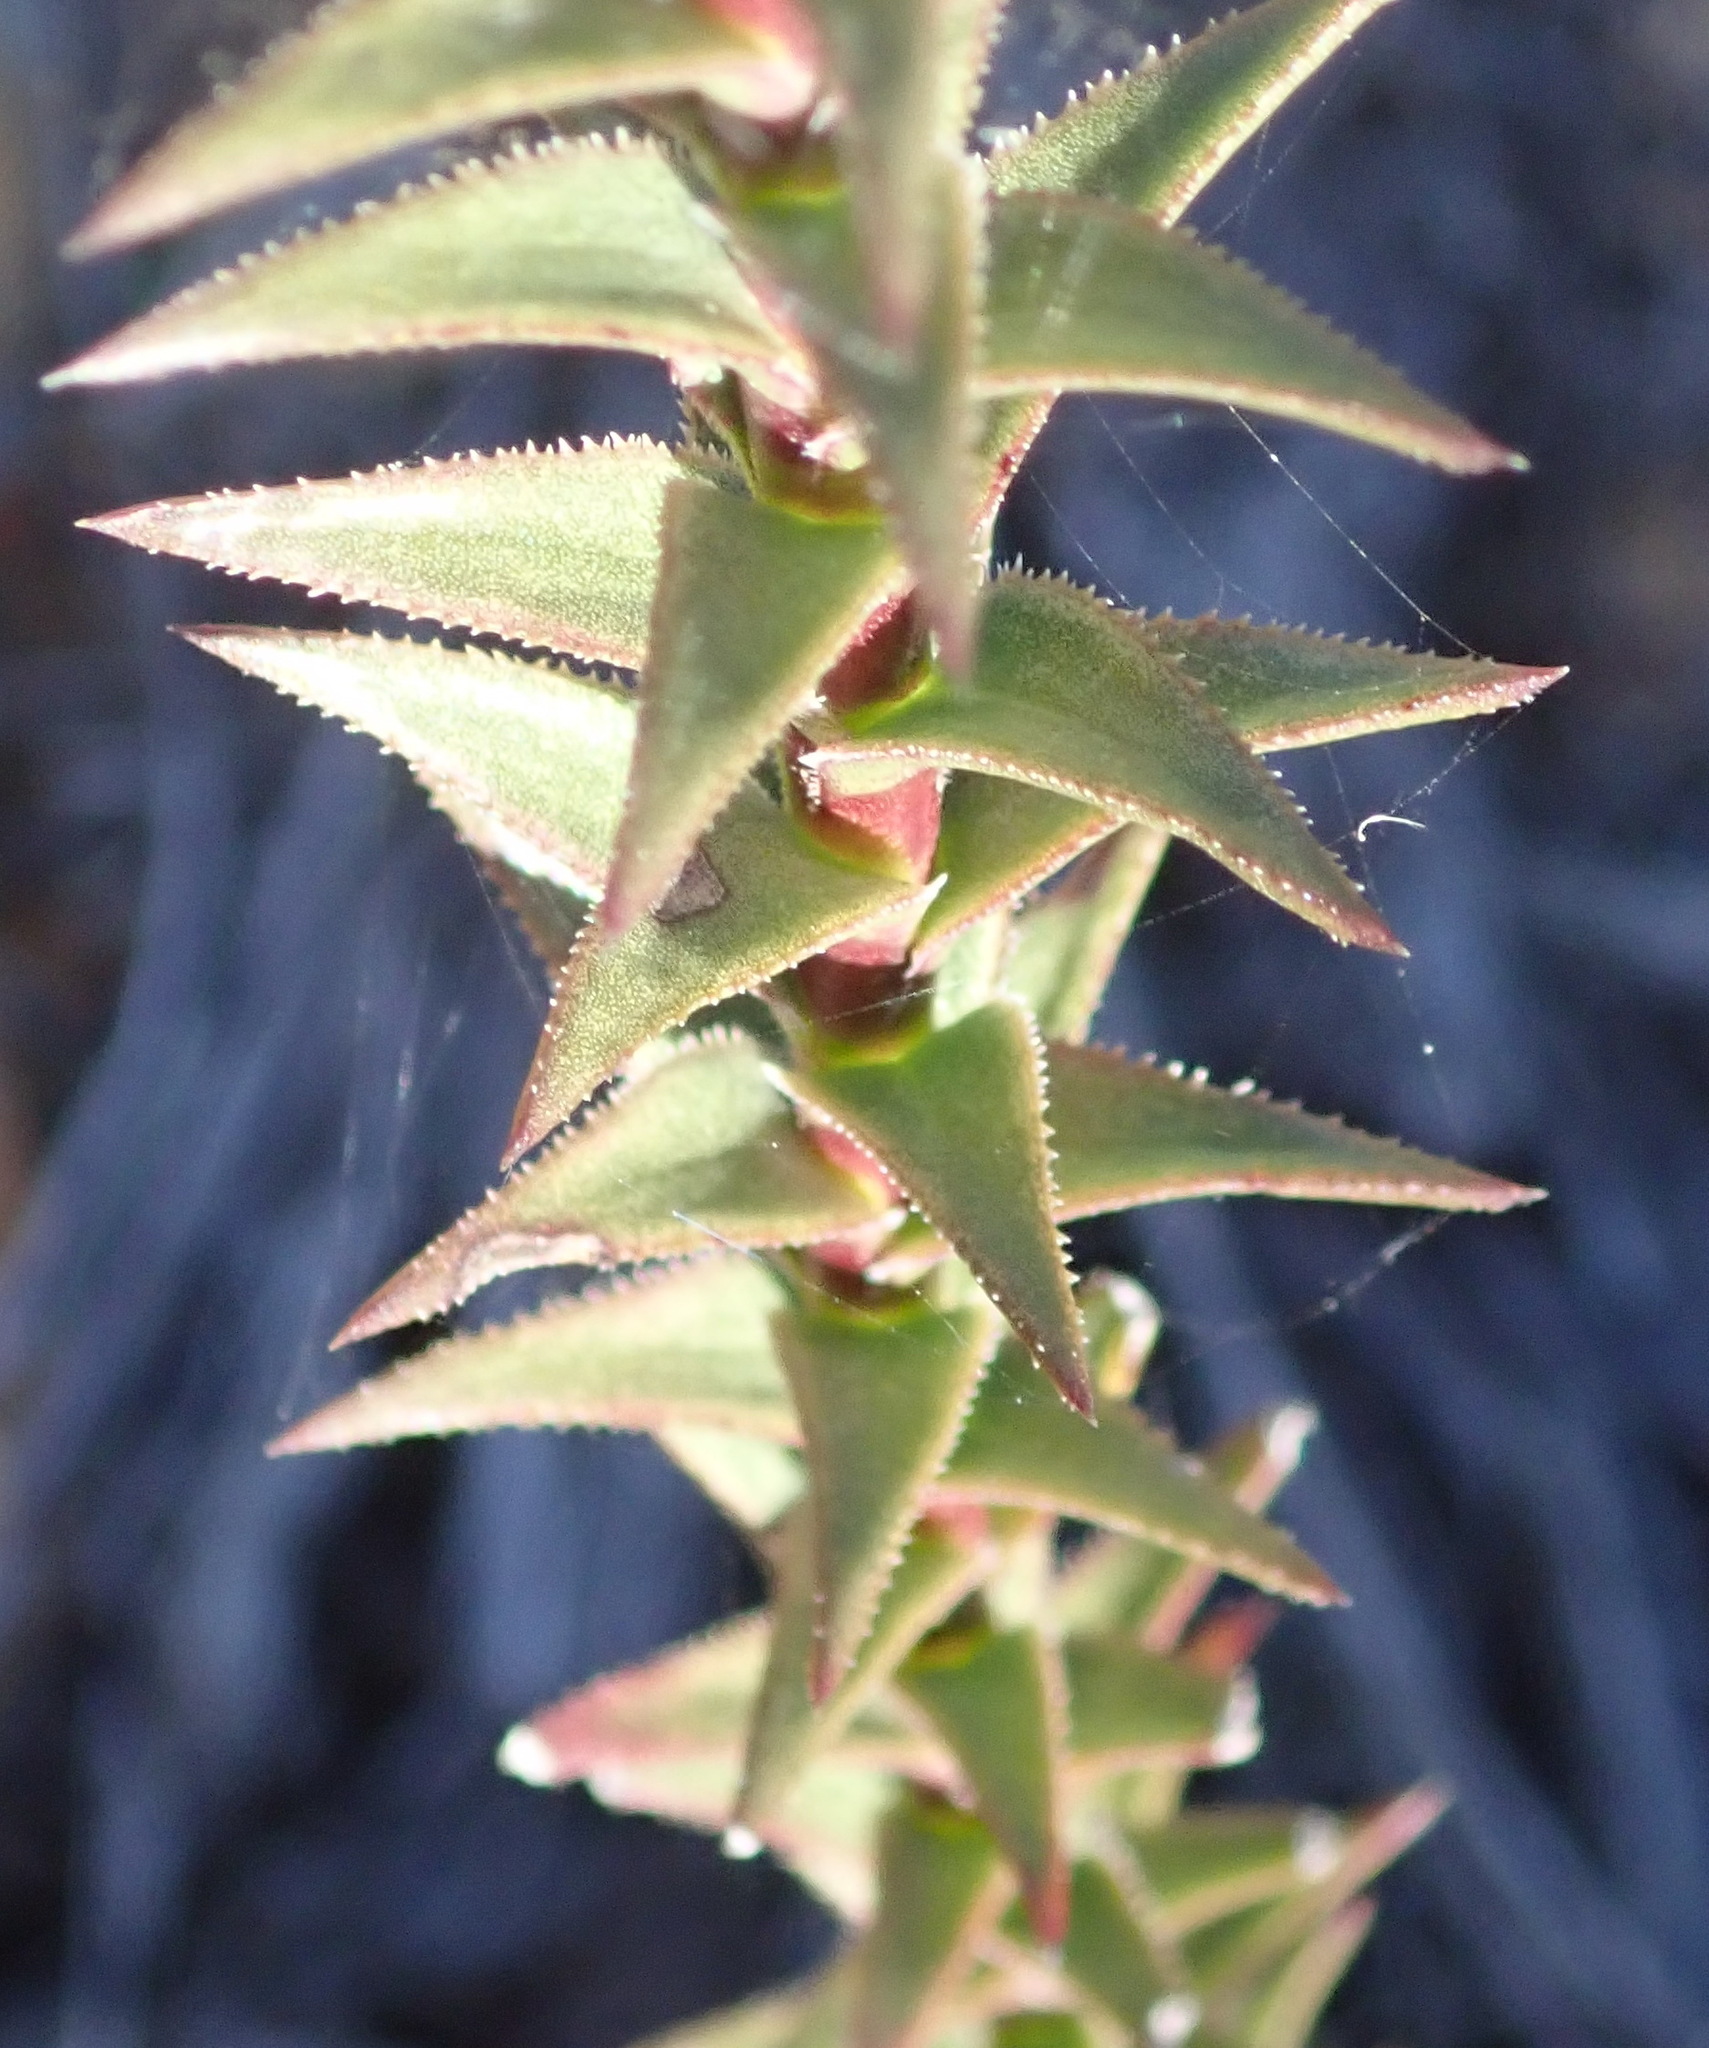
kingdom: Plantae
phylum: Tracheophyta
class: Magnoliopsida
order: Asterales
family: Asteraceae
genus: Oedera
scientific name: Oedera imbricata
